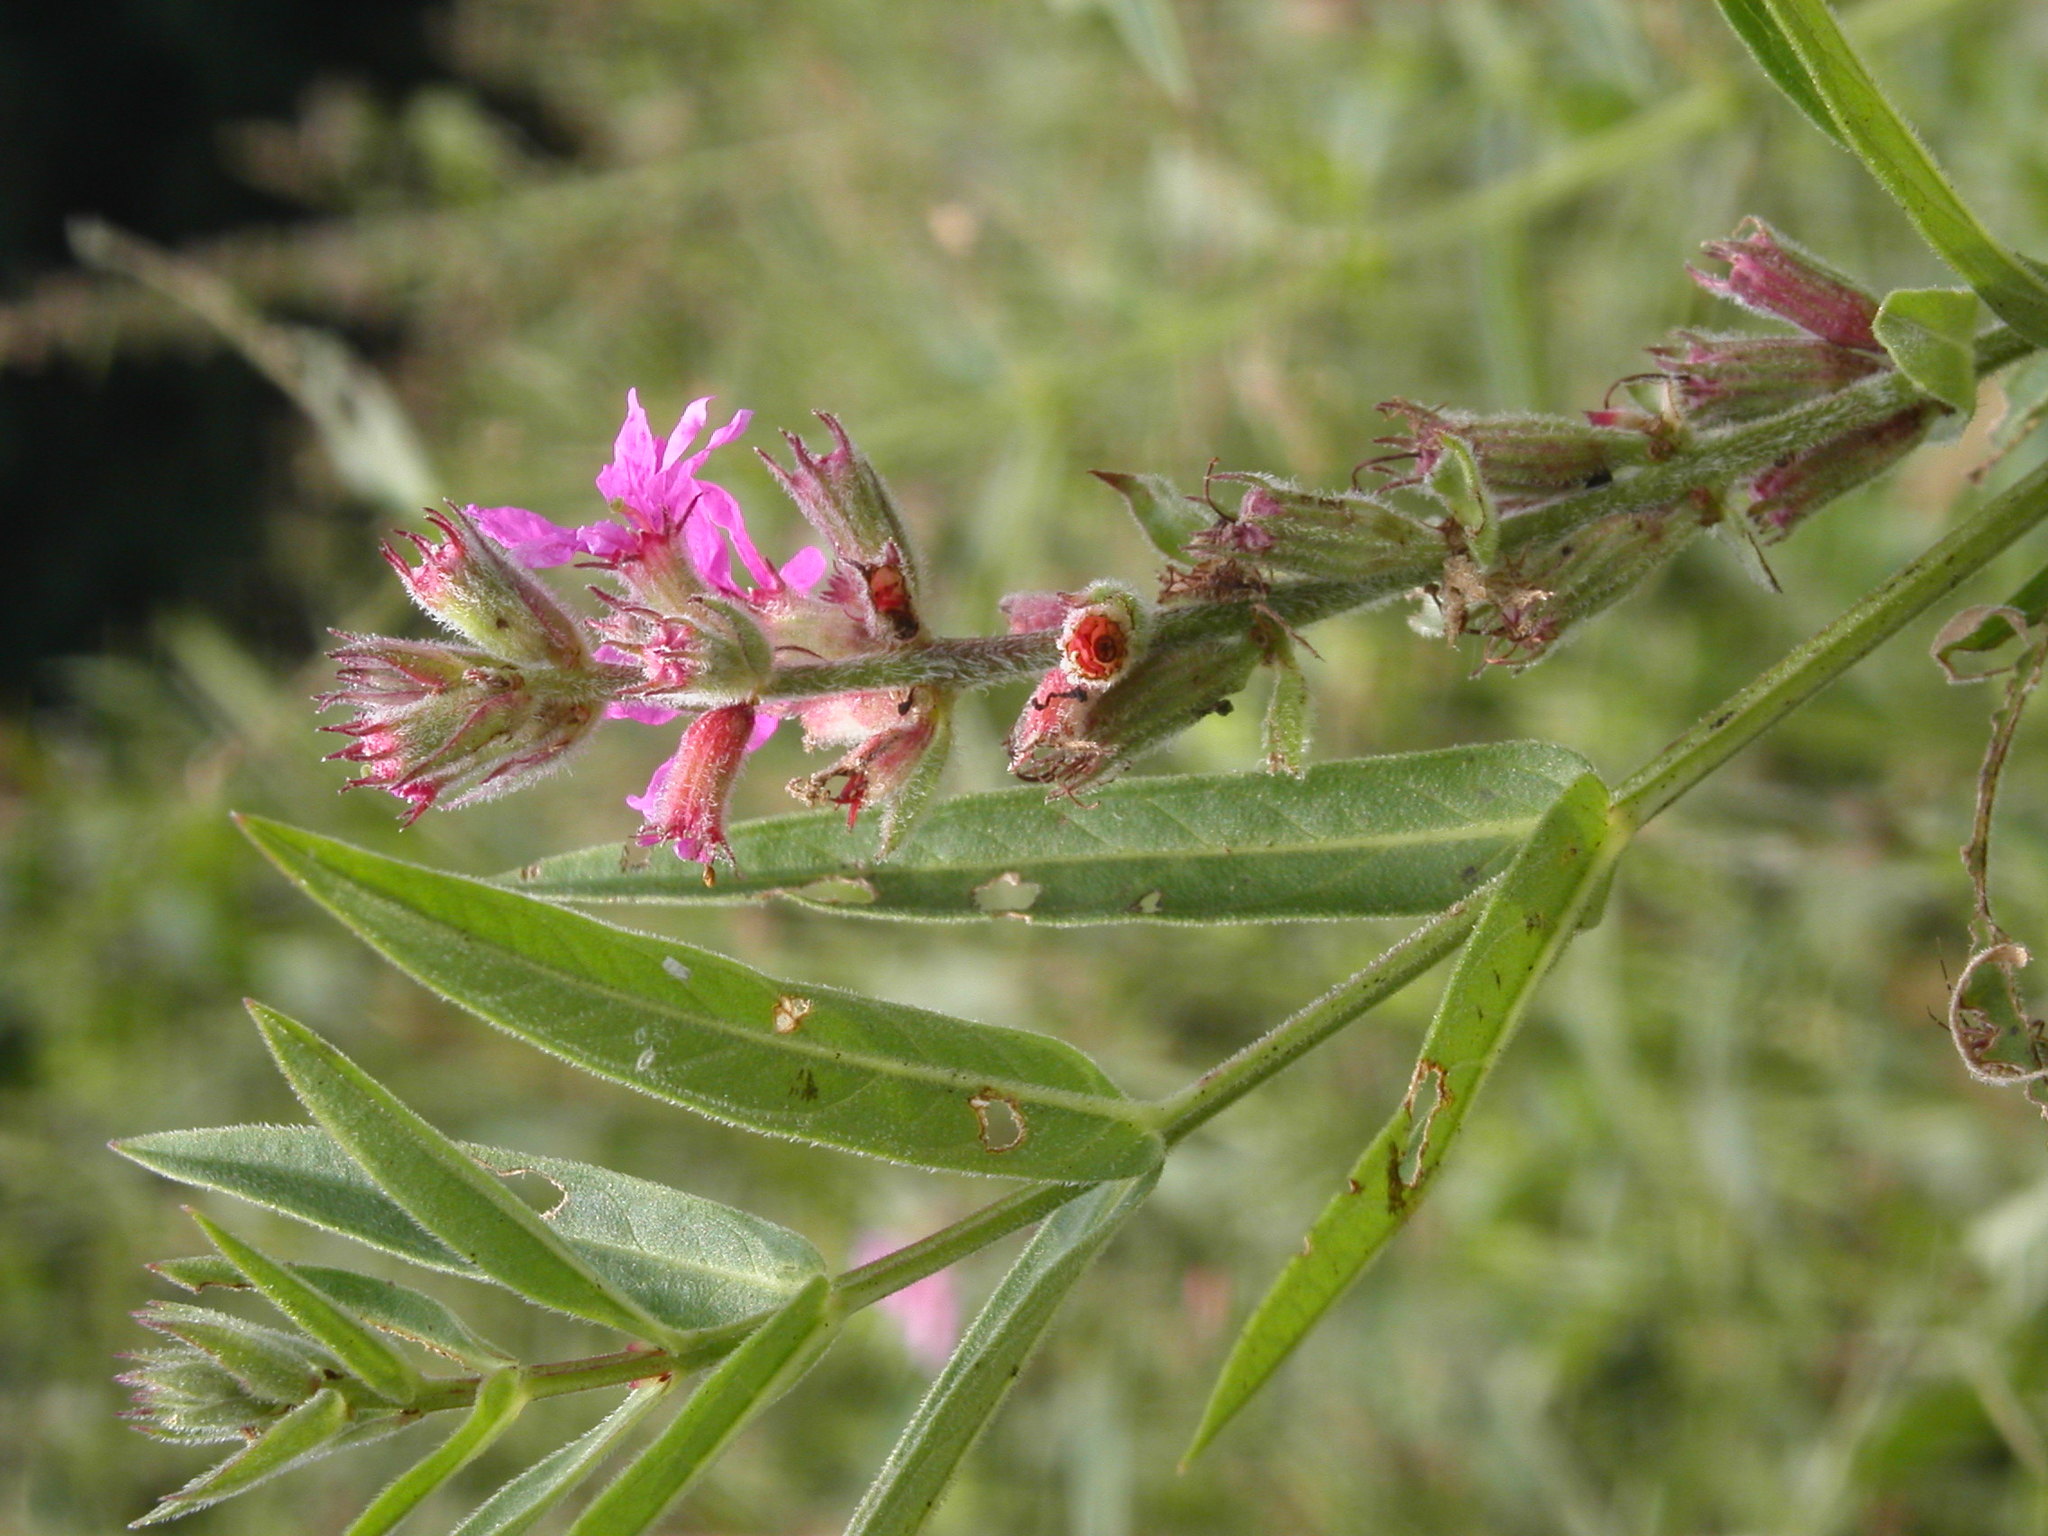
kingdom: Plantae
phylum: Tracheophyta
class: Magnoliopsida
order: Myrtales
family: Lythraceae
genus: Lythrum
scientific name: Lythrum salicaria
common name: Purple loosestrife
